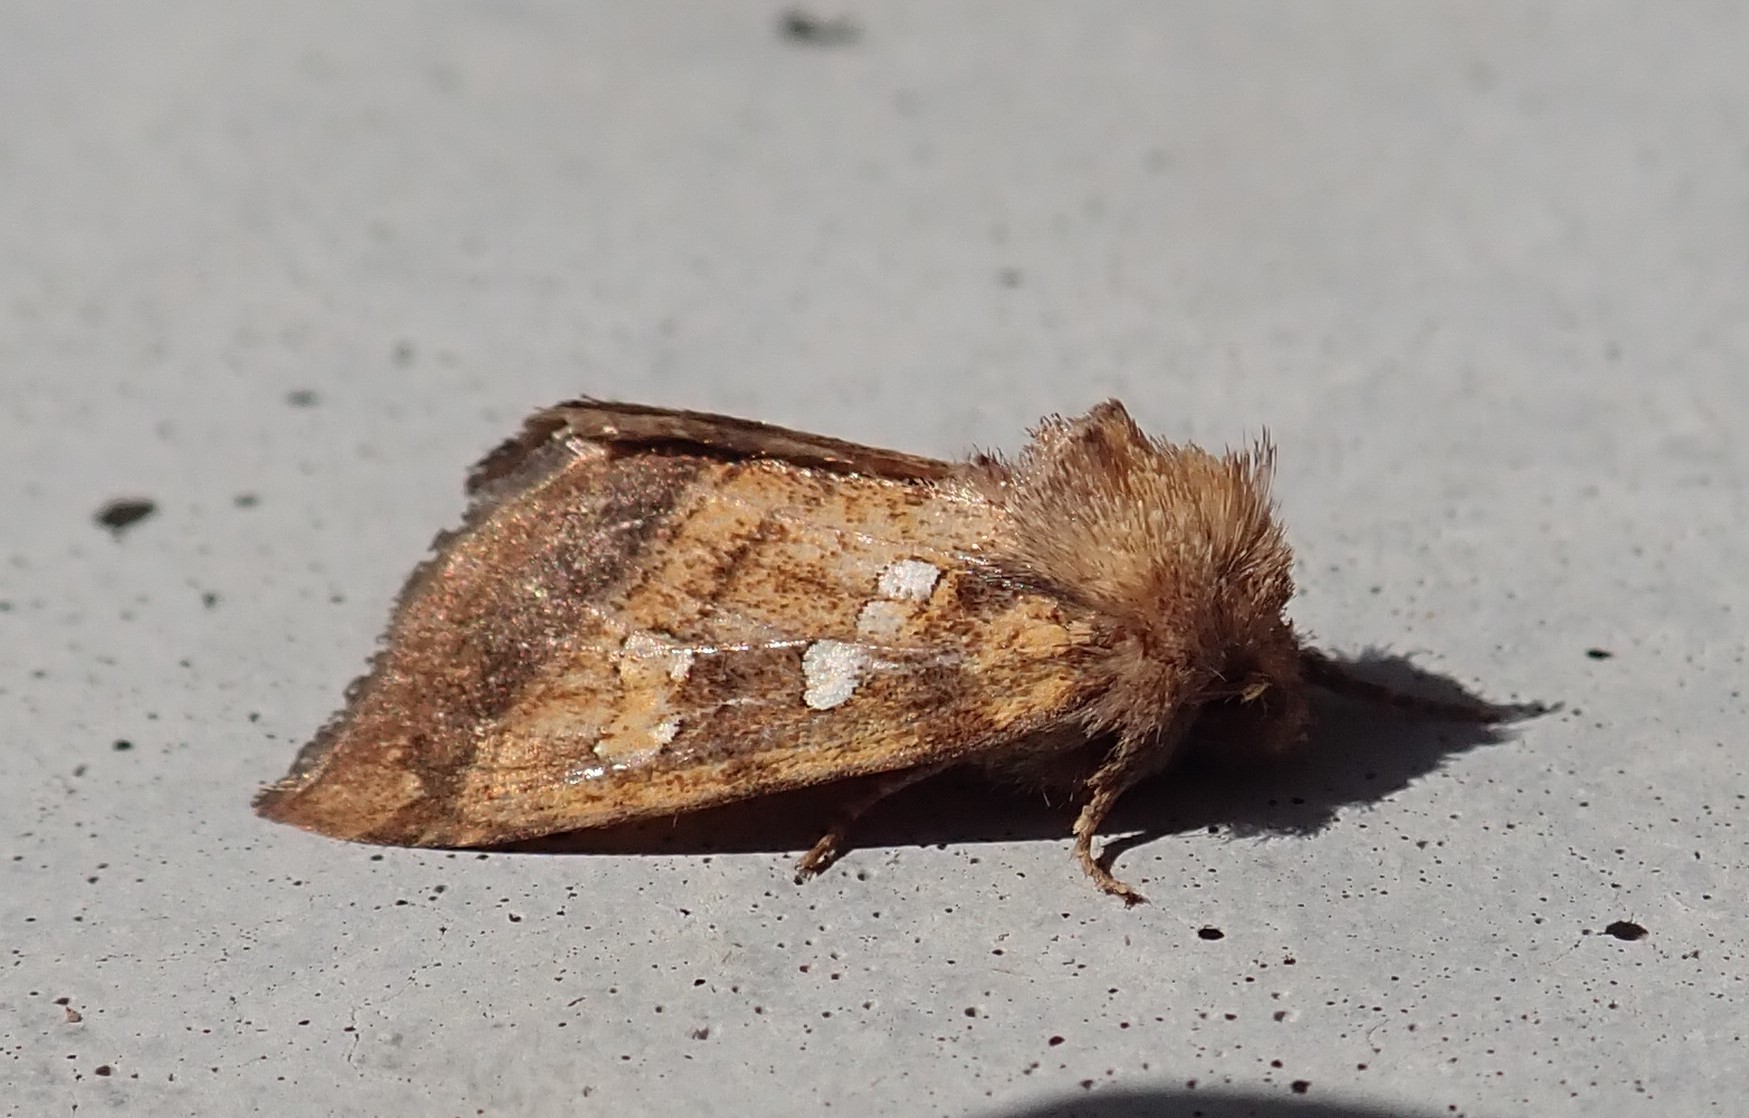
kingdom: Animalia
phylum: Arthropoda
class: Insecta
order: Lepidoptera
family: Noctuidae
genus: Papaipema
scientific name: Papaipema harrisii
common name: Heracleum stem borer moth
